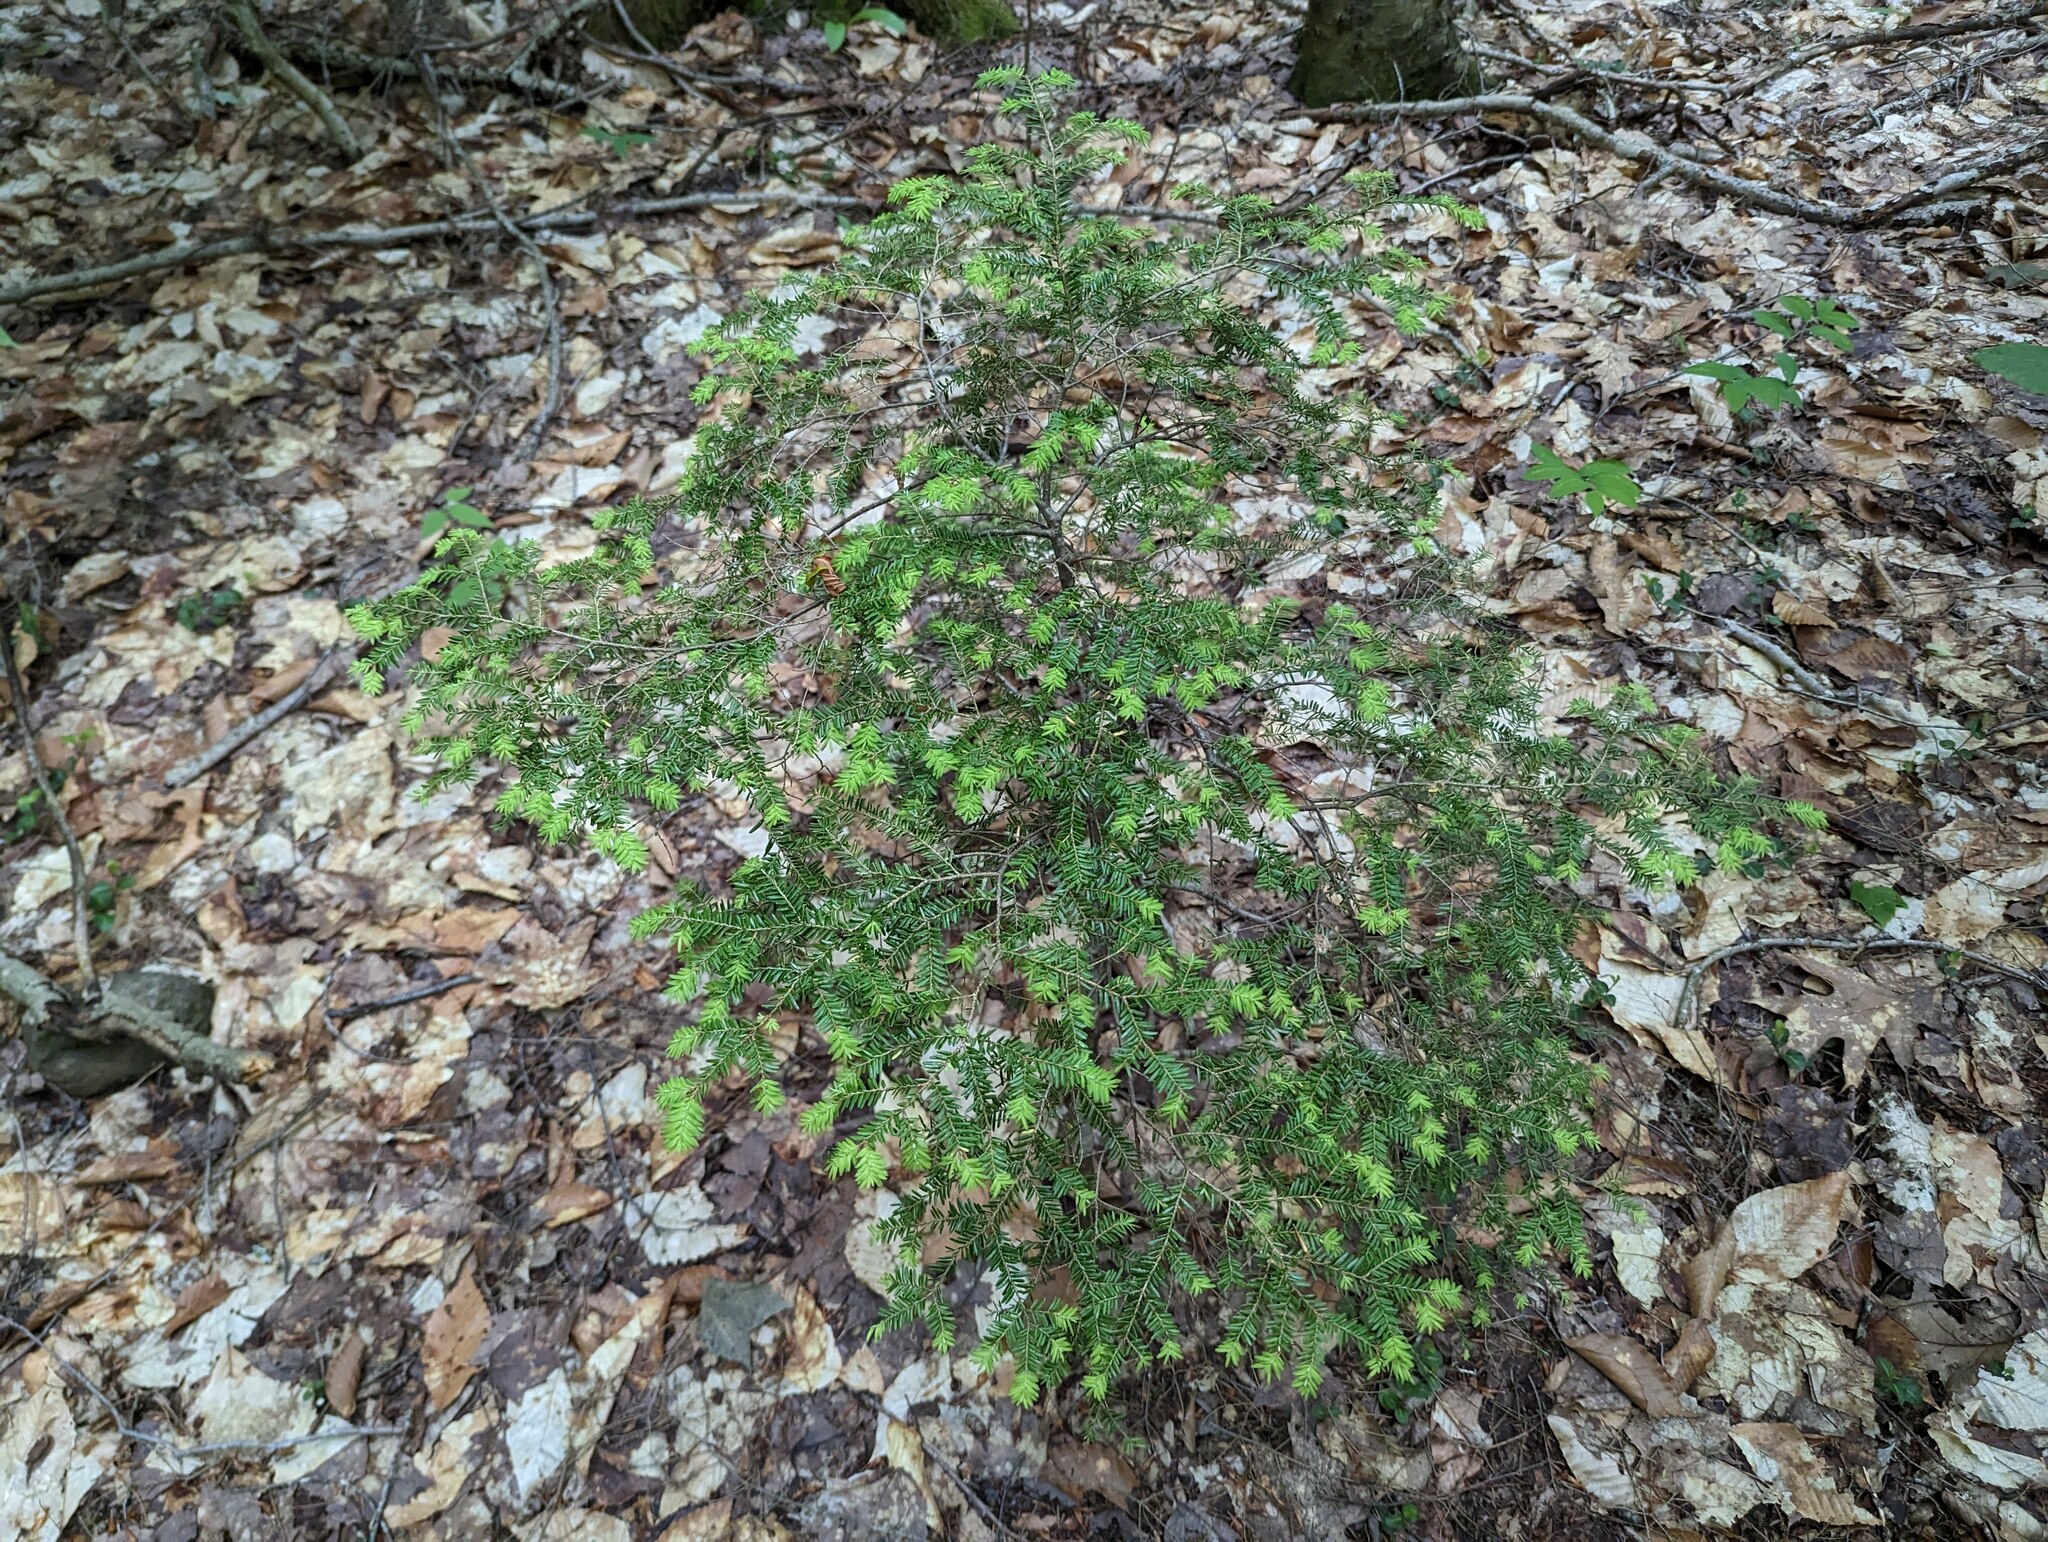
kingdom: Plantae
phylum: Tracheophyta
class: Pinopsida
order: Pinales
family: Pinaceae
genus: Tsuga
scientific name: Tsuga canadensis
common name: Eastern hemlock
